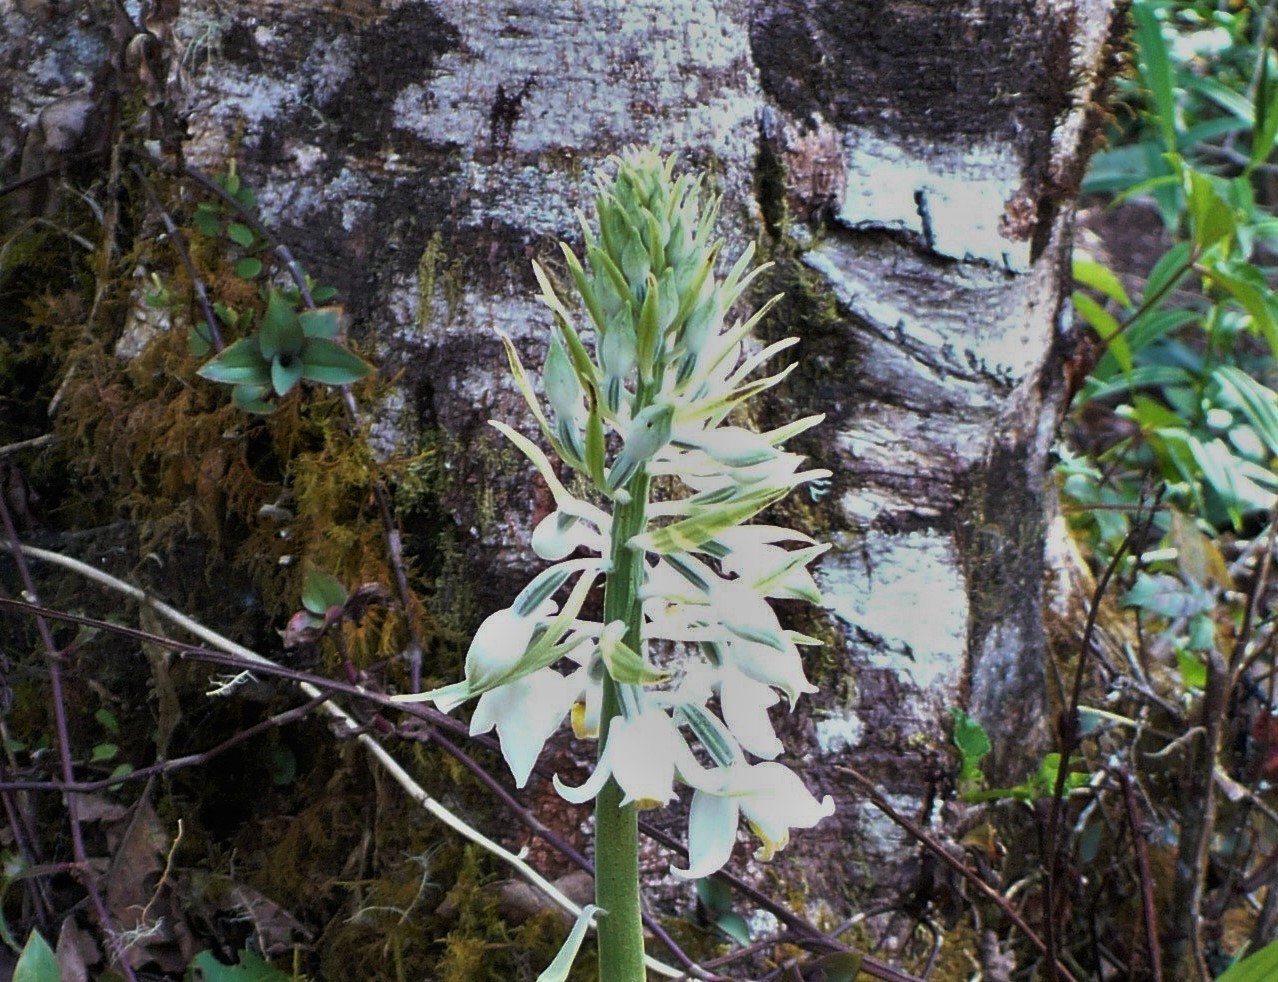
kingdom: Plantae
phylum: Tracheophyta
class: Liliopsida
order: Asparagales
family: Orchidaceae
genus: Calanthe
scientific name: Calanthe calanthoides
